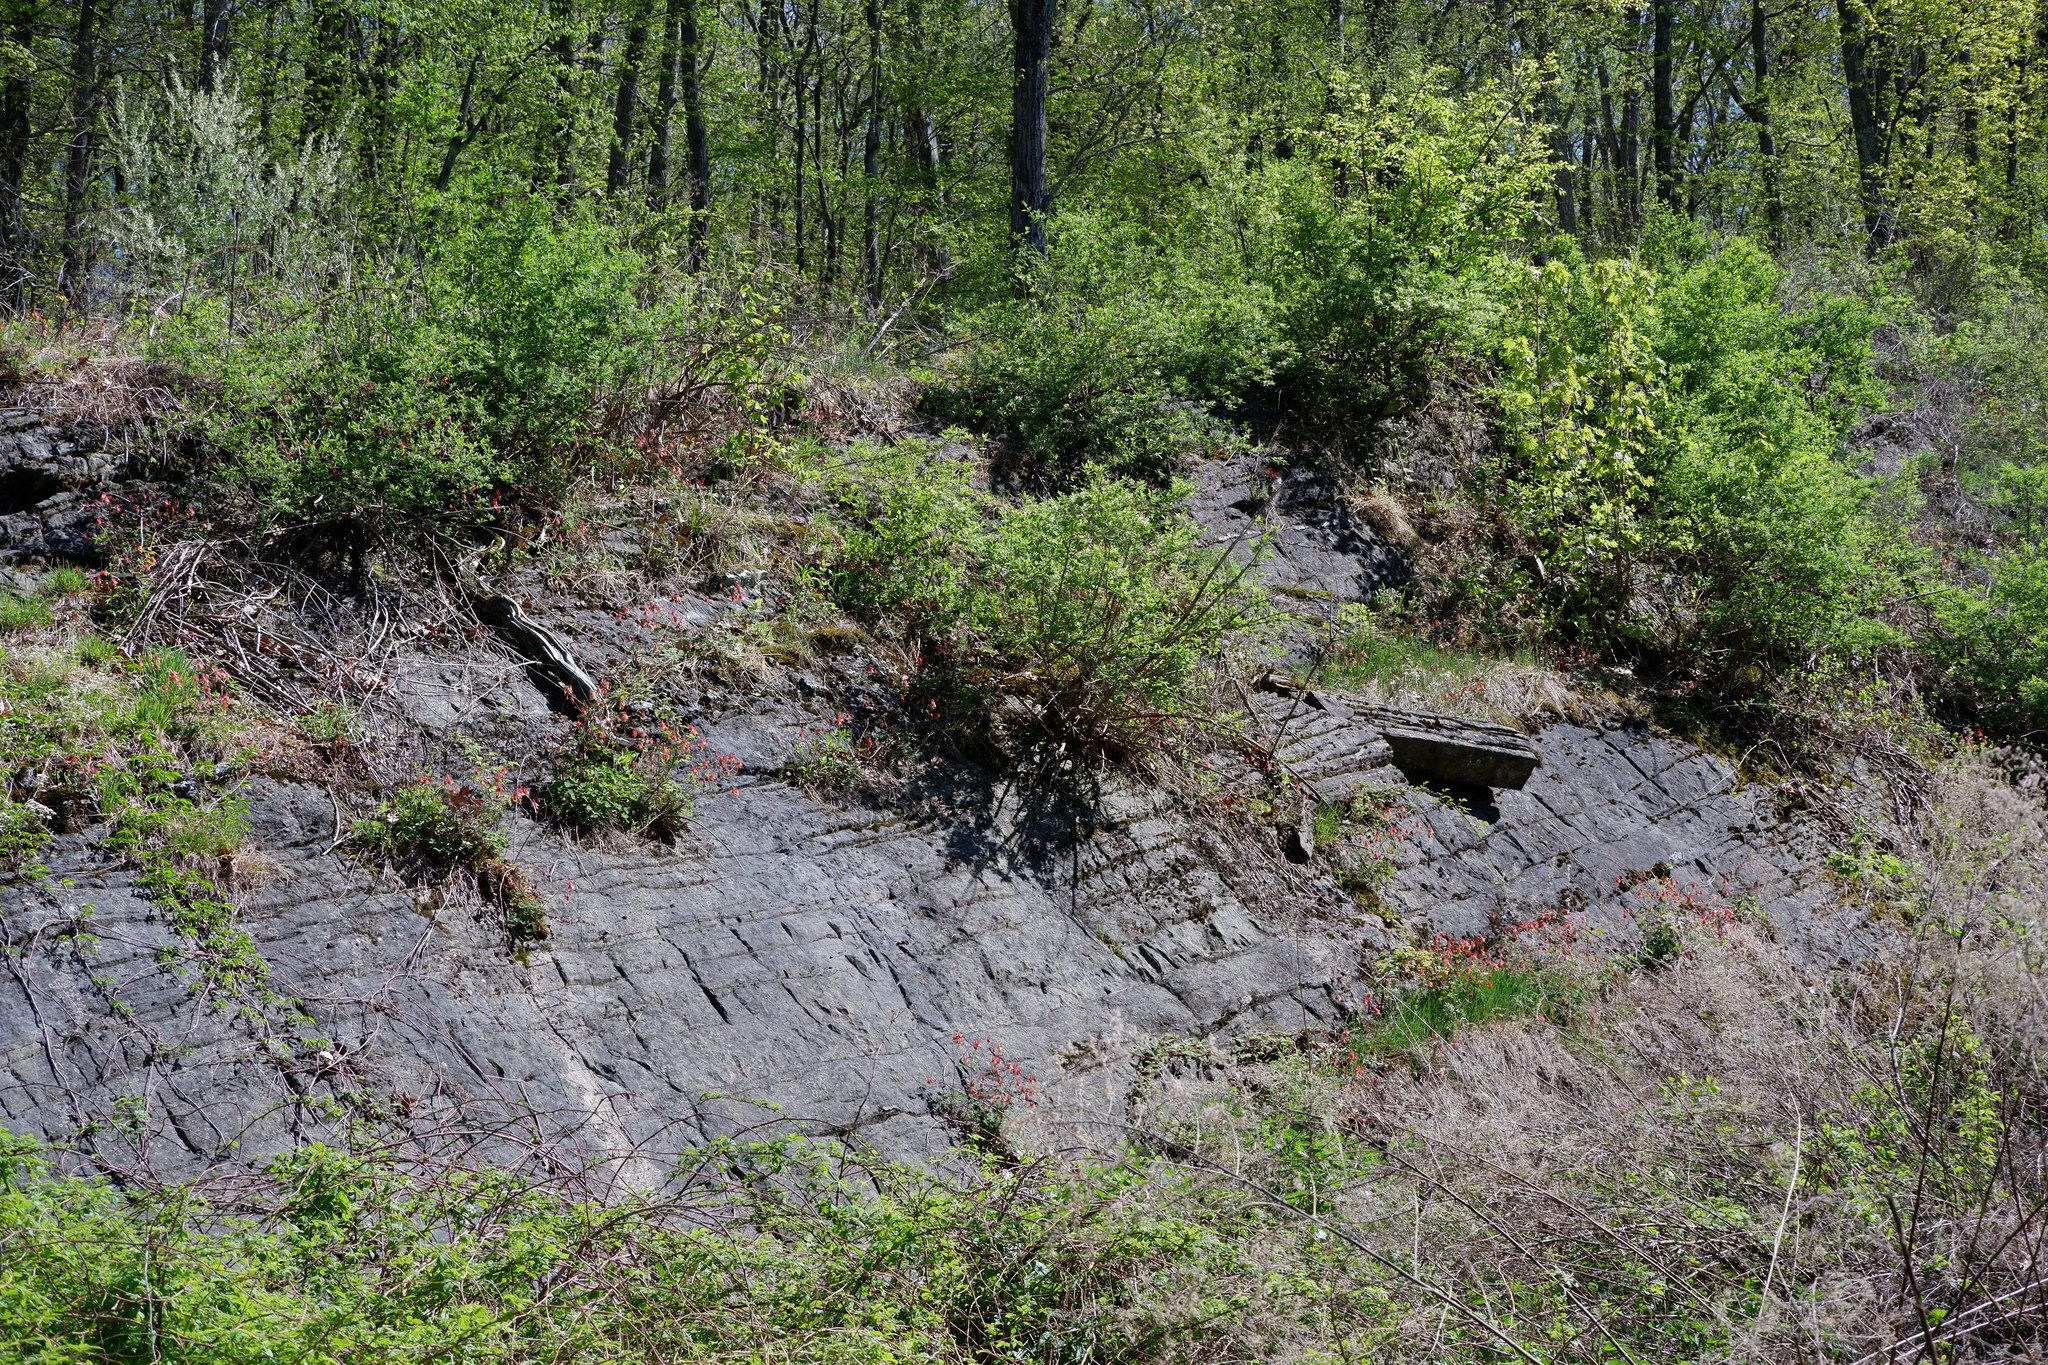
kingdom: Plantae
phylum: Tracheophyta
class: Magnoliopsida
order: Ranunculales
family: Ranunculaceae
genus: Aquilegia
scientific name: Aquilegia canadensis
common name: American columbine
